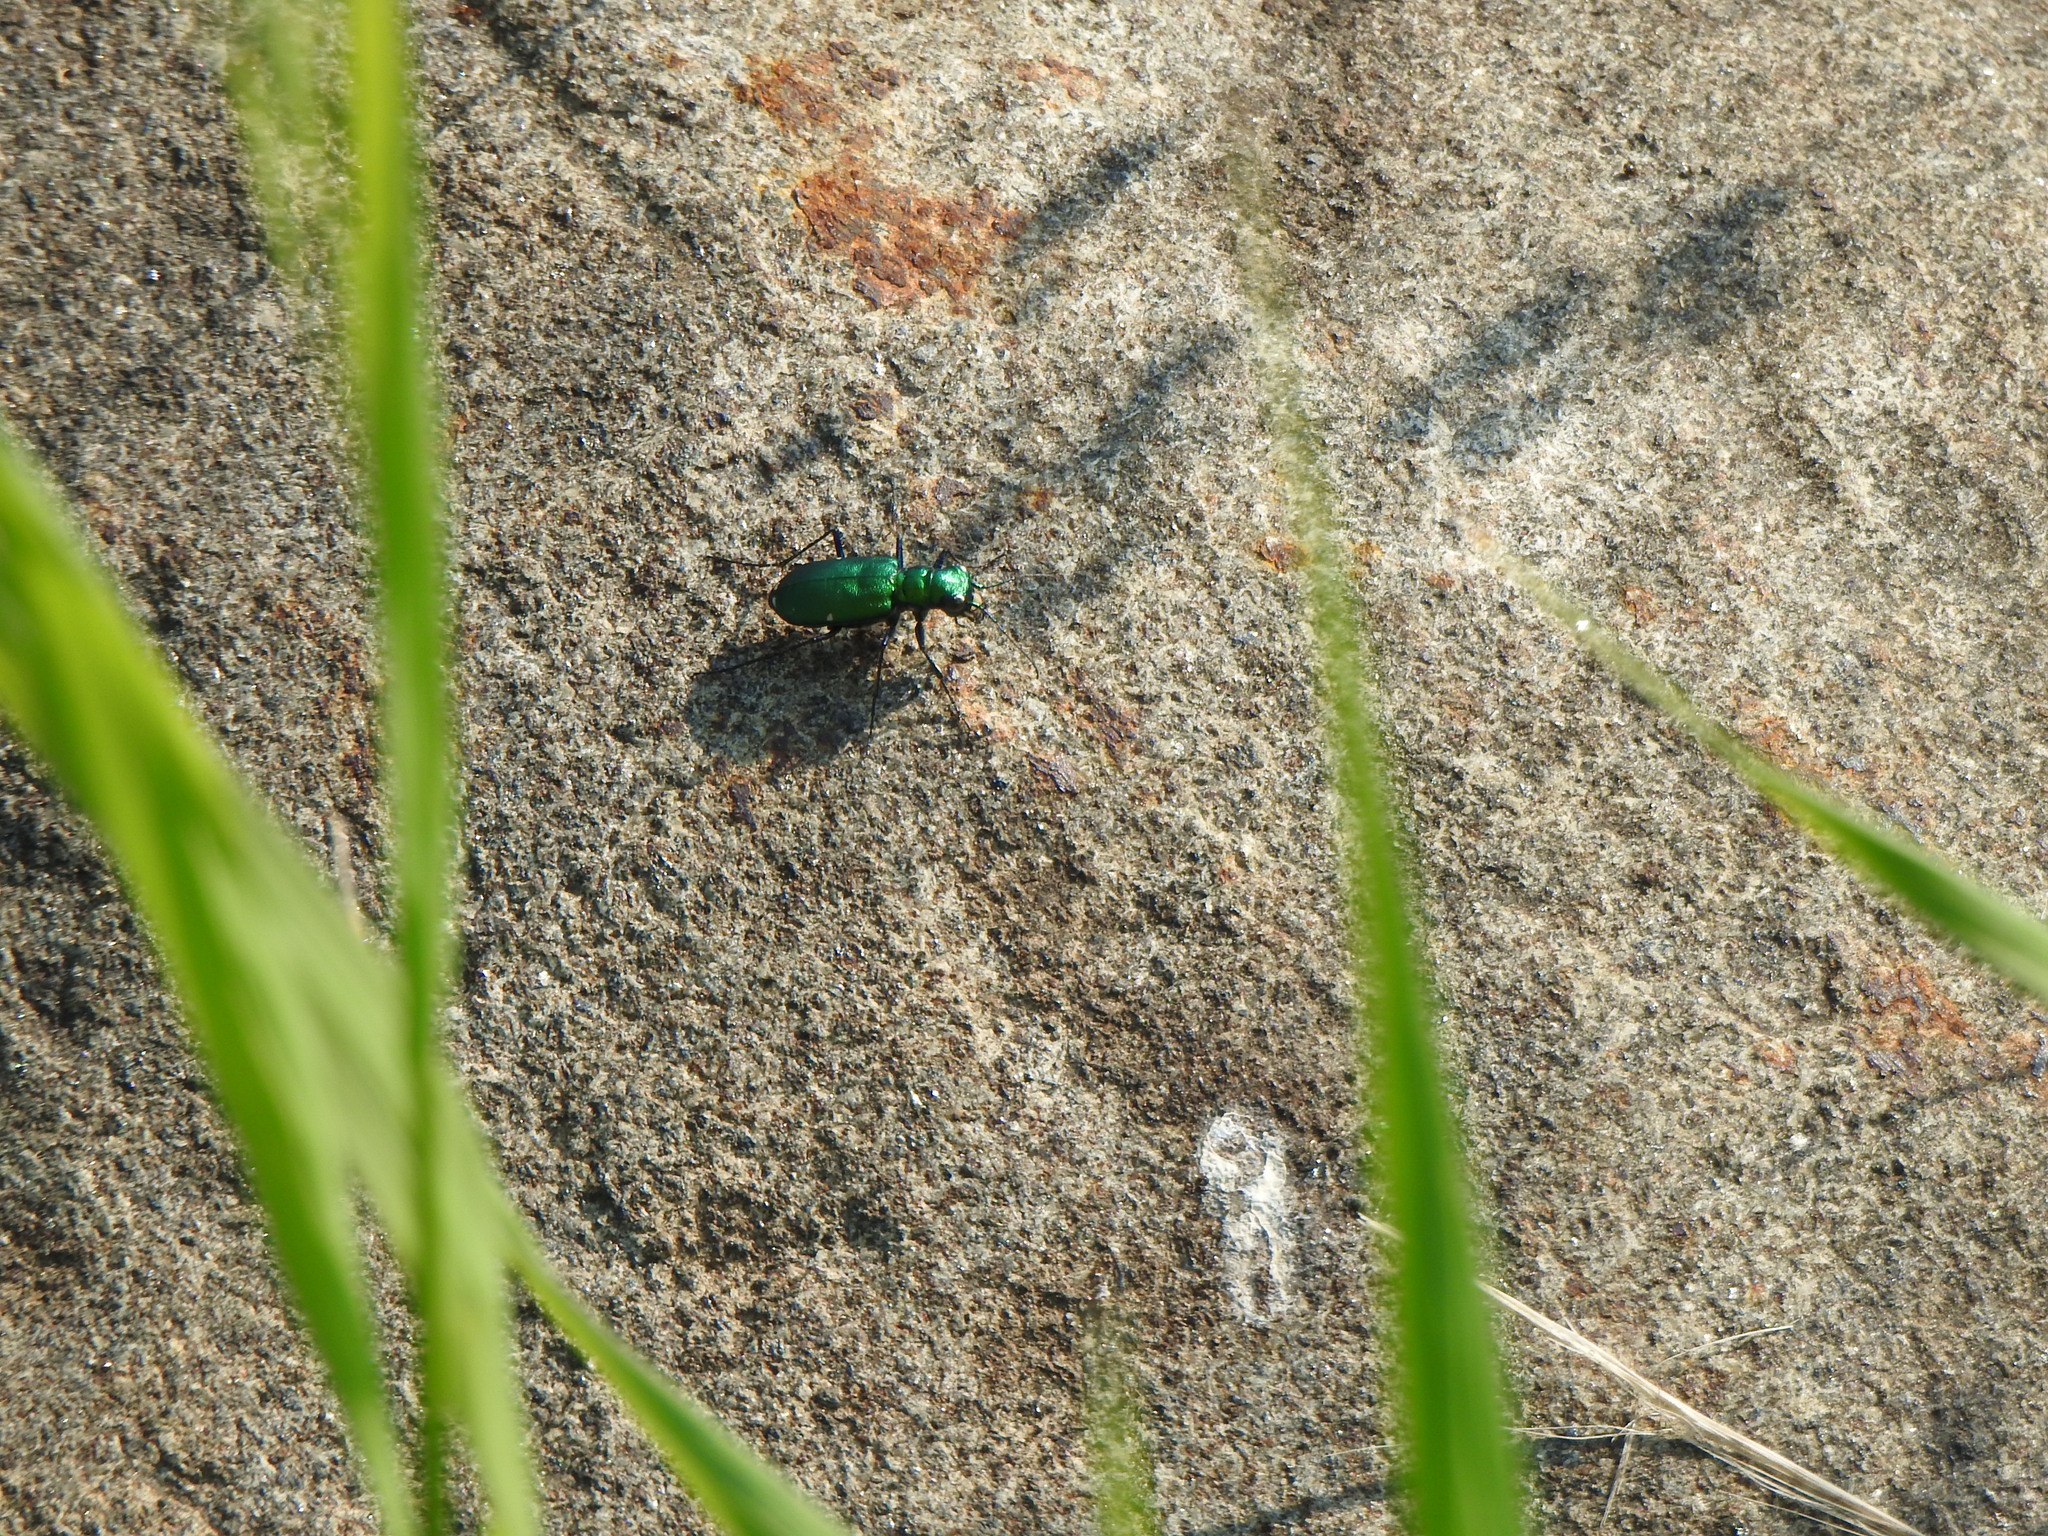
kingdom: Animalia
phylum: Arthropoda
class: Insecta
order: Coleoptera
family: Carabidae
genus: Cicindela
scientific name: Cicindela sexguttata
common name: Six-spotted tiger beetle
